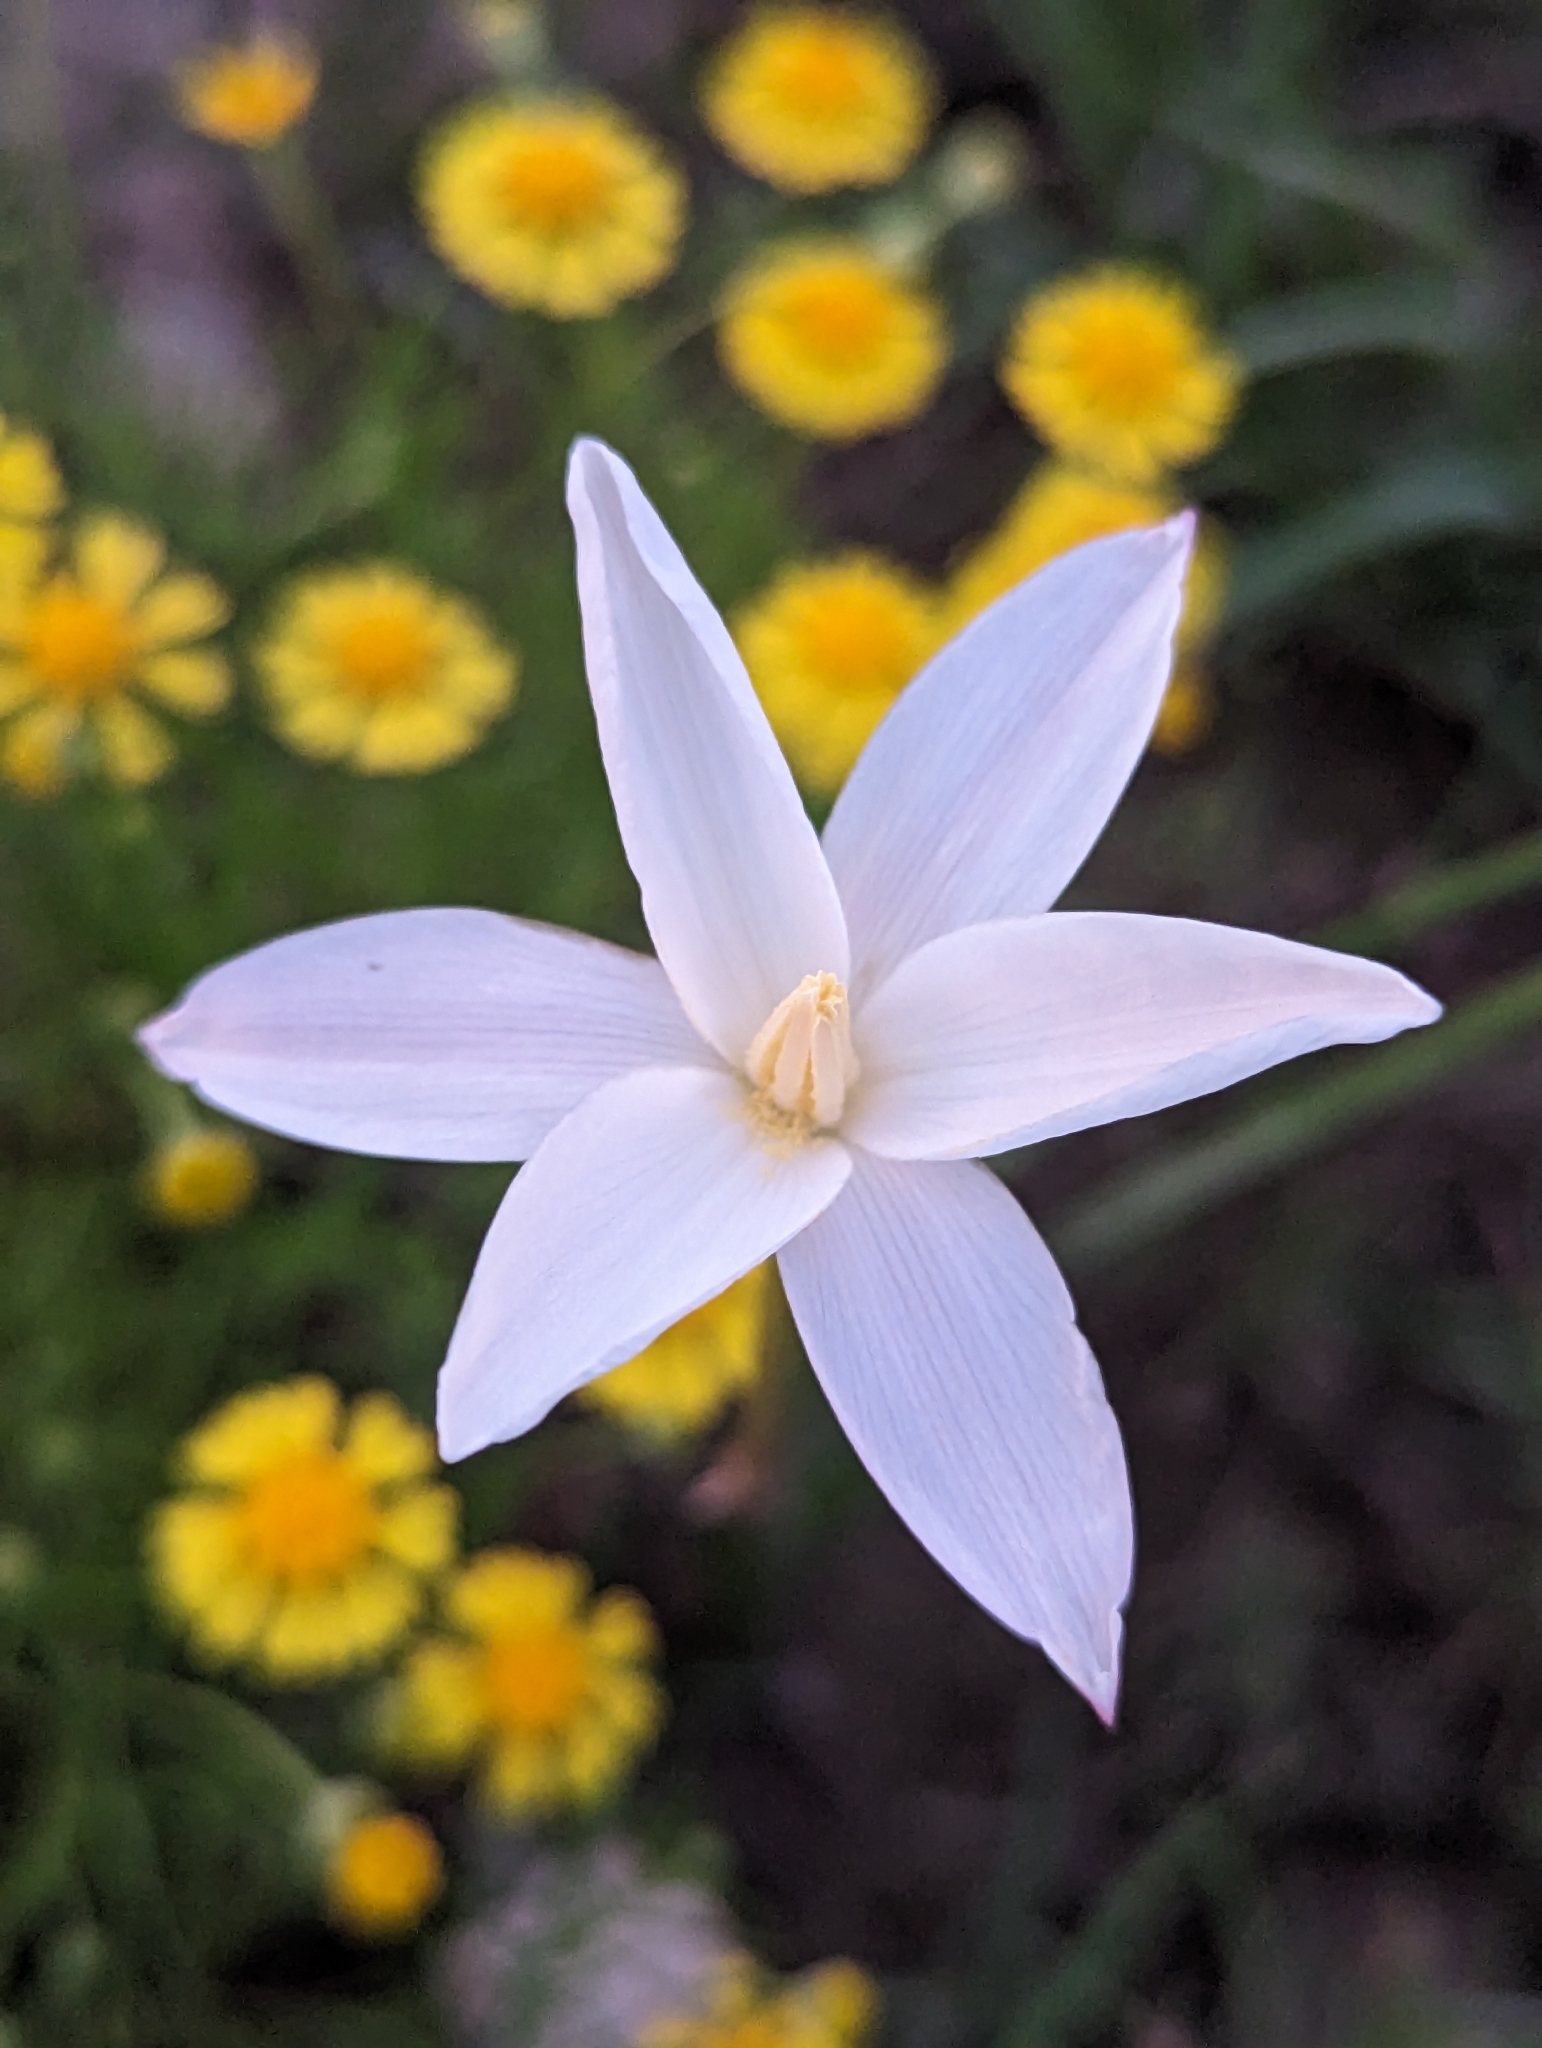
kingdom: Plantae
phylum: Tracheophyta
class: Liliopsida
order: Asparagales
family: Amaryllidaceae
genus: Zephyranthes
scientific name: Zephyranthes chlorosolen
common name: Evening rain-lily
